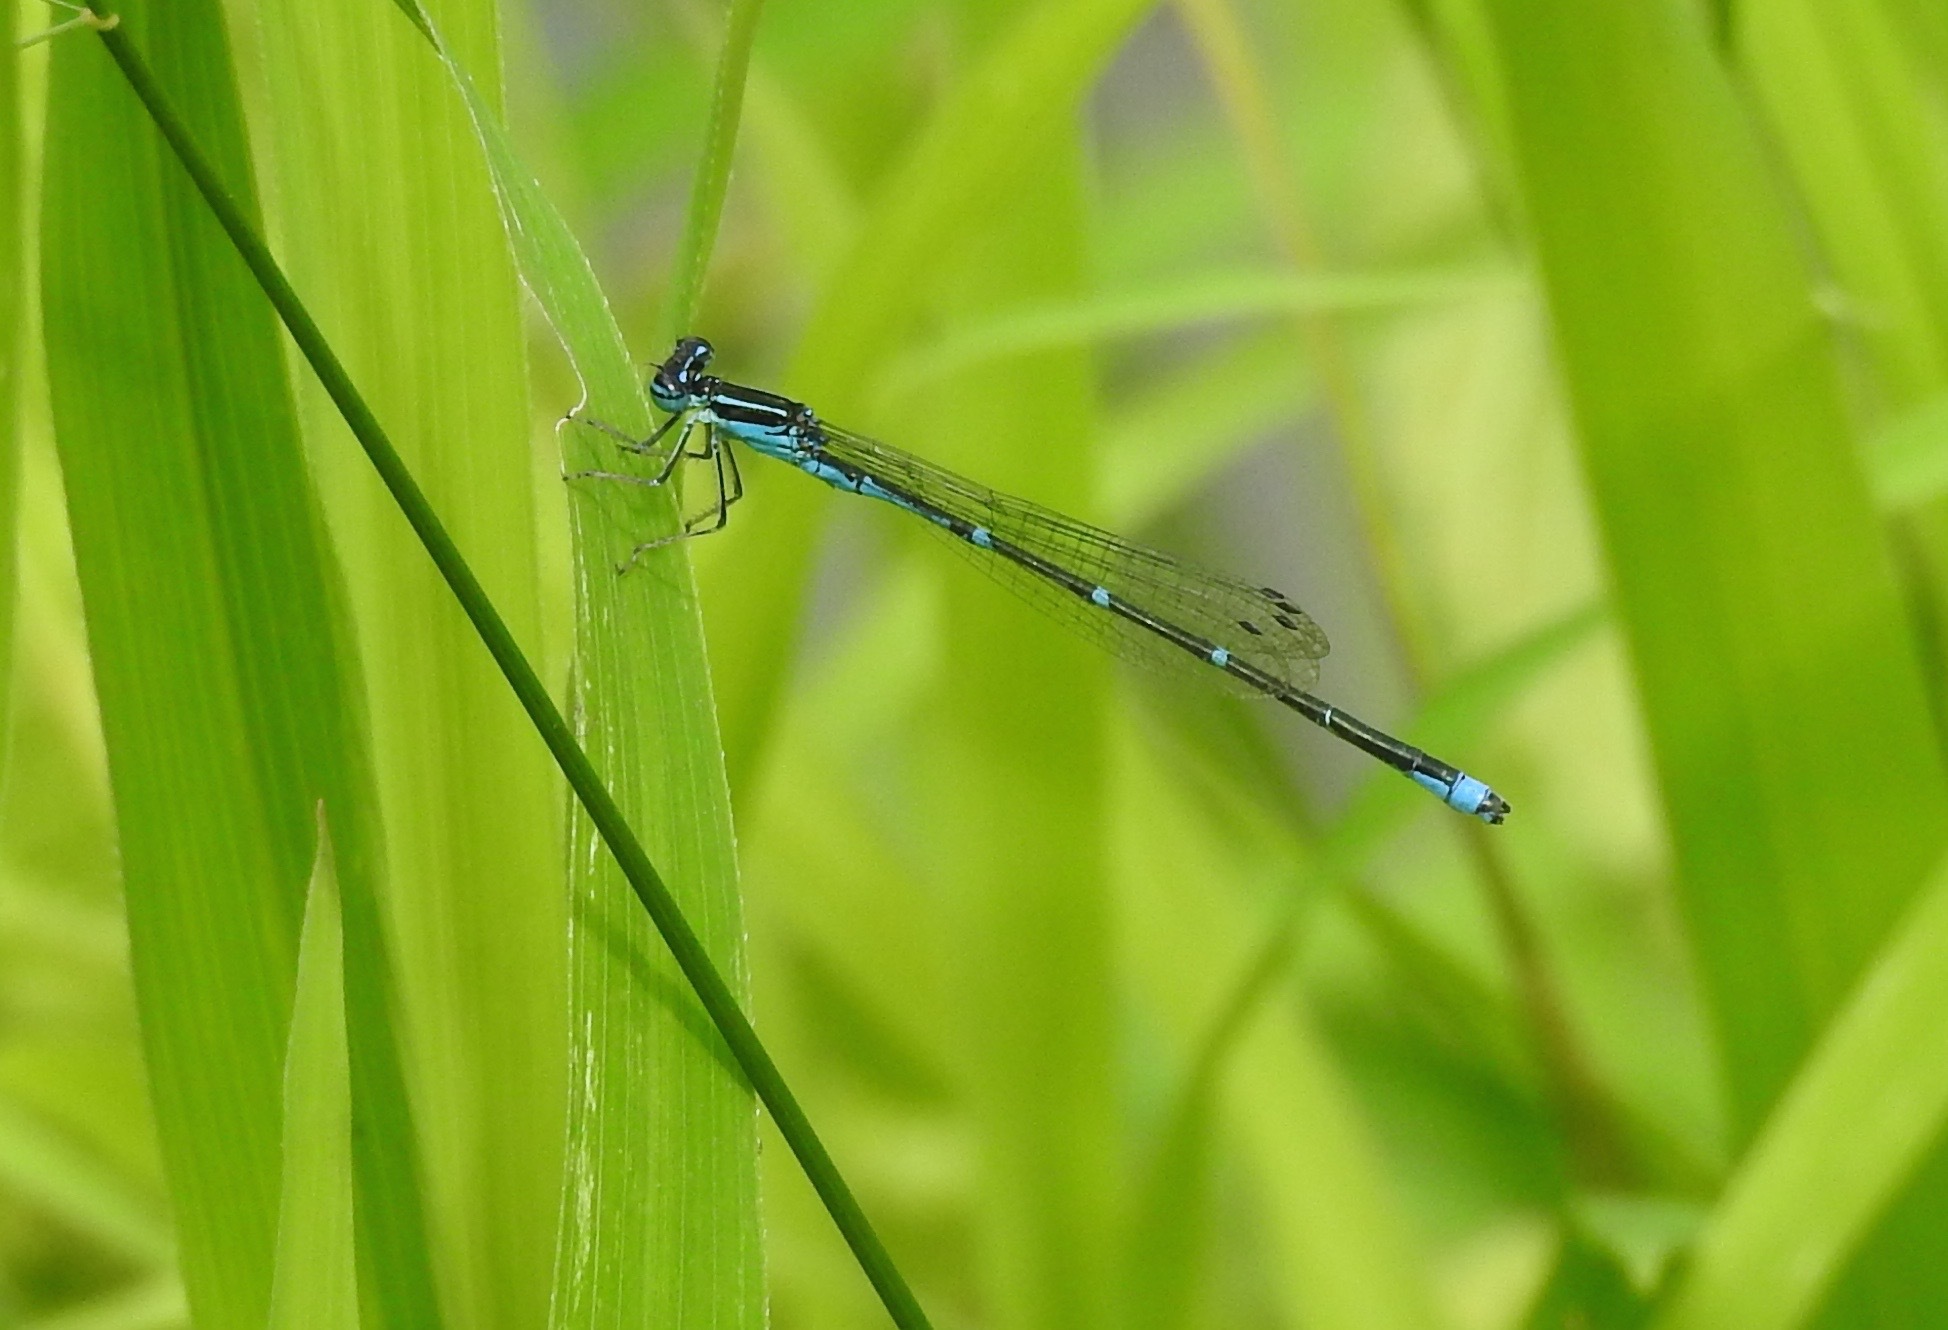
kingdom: Animalia
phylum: Arthropoda
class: Insecta
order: Odonata
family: Coenagrionidae
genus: Enallagma
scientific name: Enallagma exsulans
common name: Stream bluet
